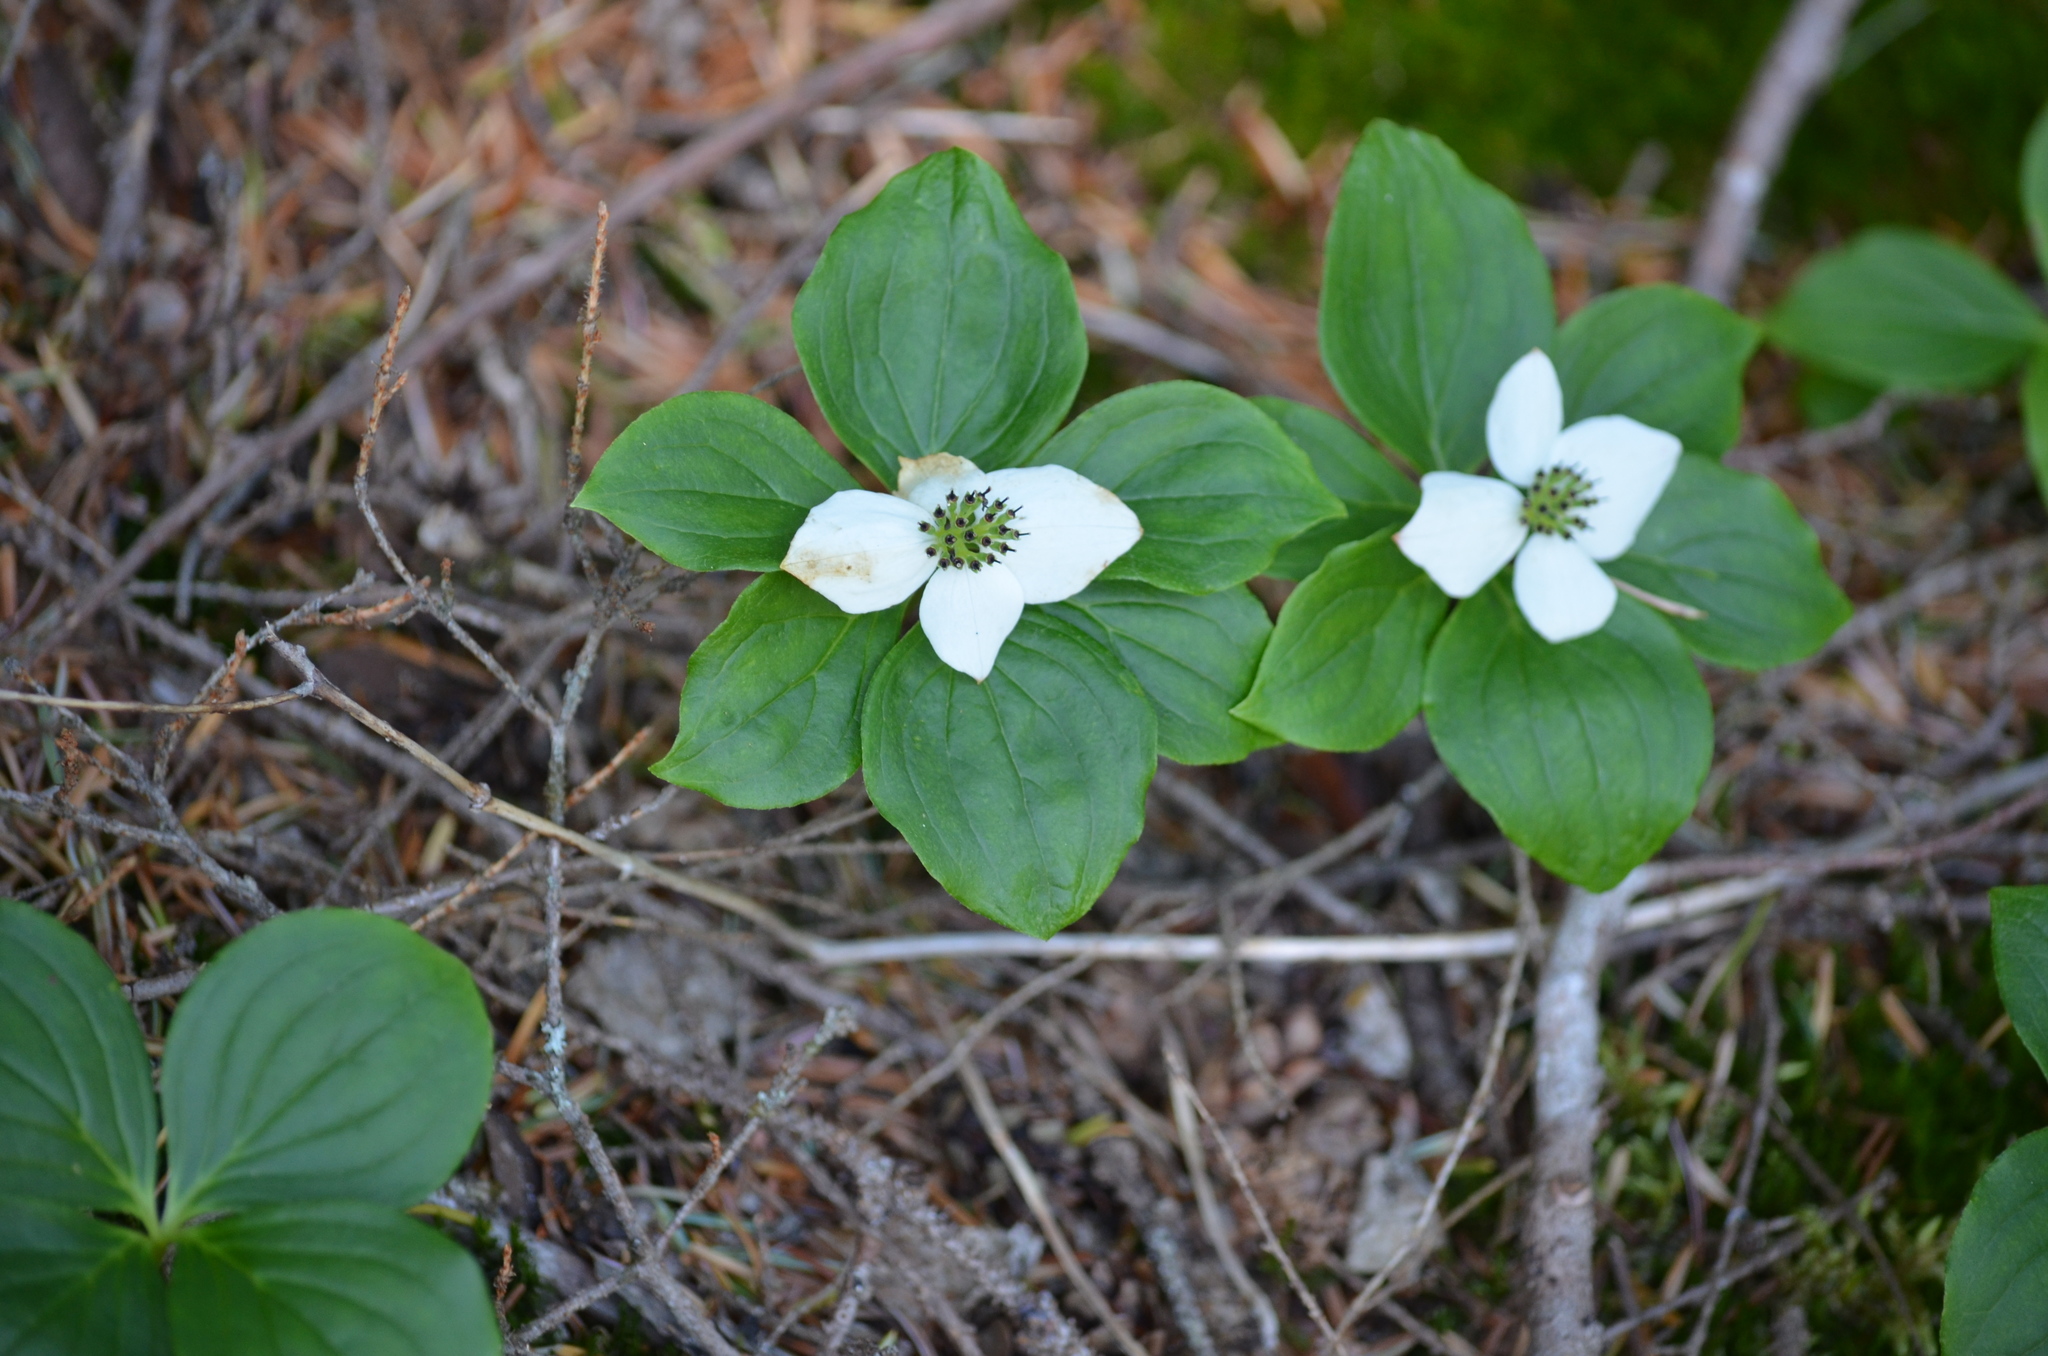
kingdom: Plantae
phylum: Tracheophyta
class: Magnoliopsida
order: Cornales
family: Cornaceae
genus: Cornus
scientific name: Cornus unalaschkensis
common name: Alaska bunchberry
